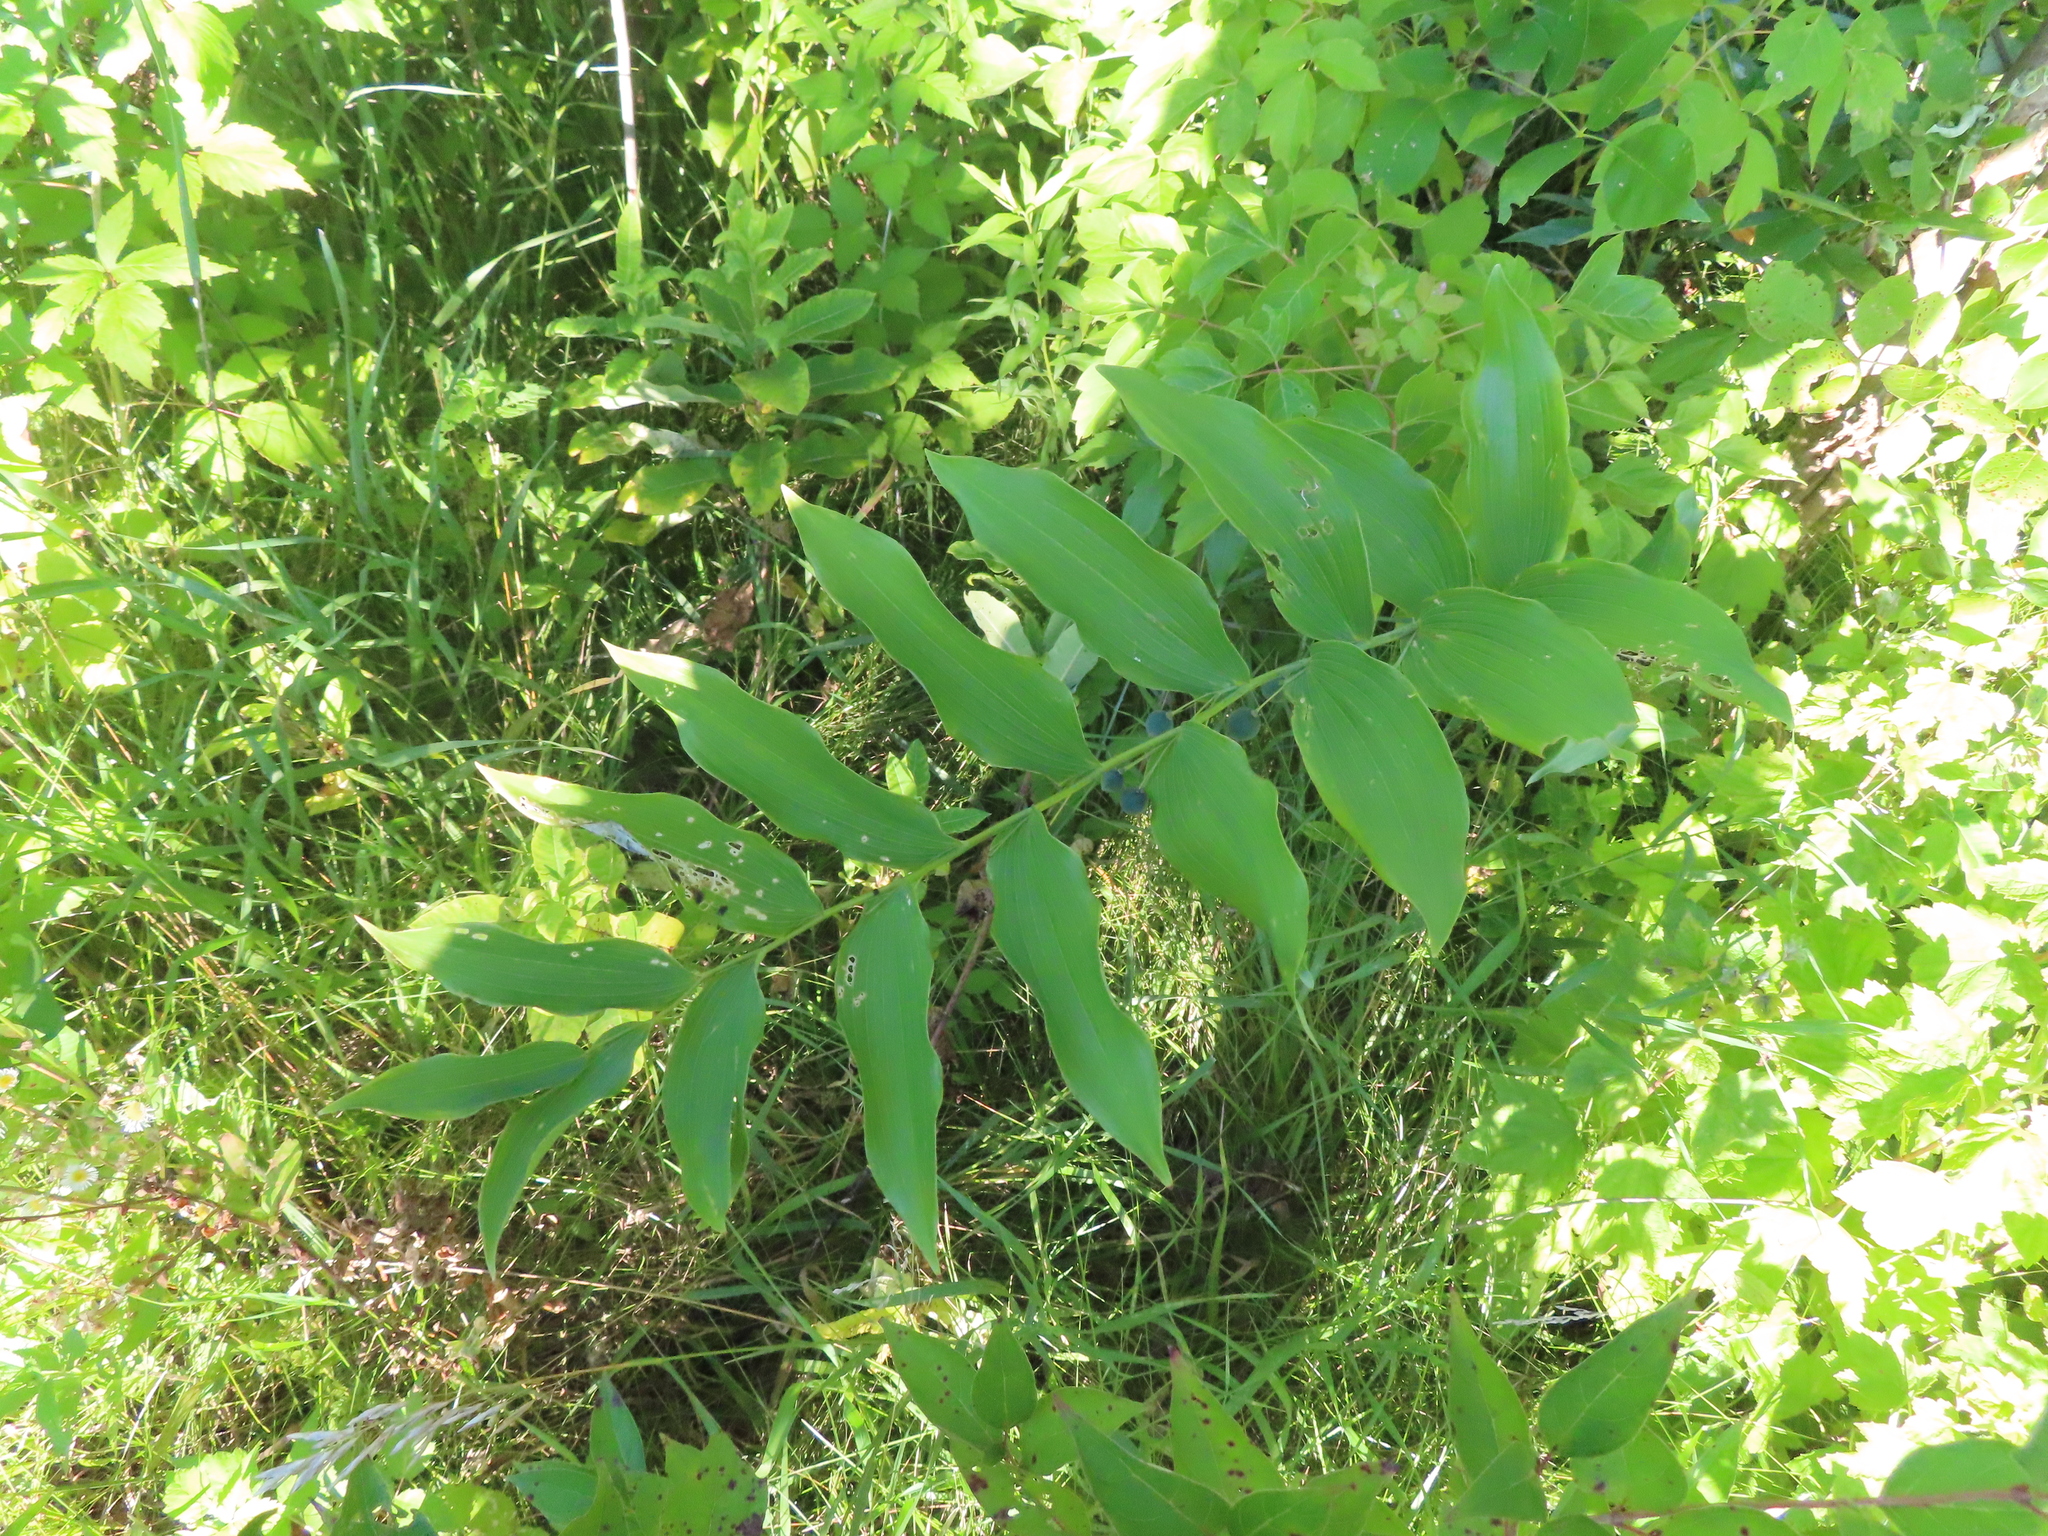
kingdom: Plantae
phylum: Tracheophyta
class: Liliopsida
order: Asparagales
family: Asparagaceae
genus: Polygonatum
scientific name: Polygonatum biflorum
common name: American solomon's-seal
